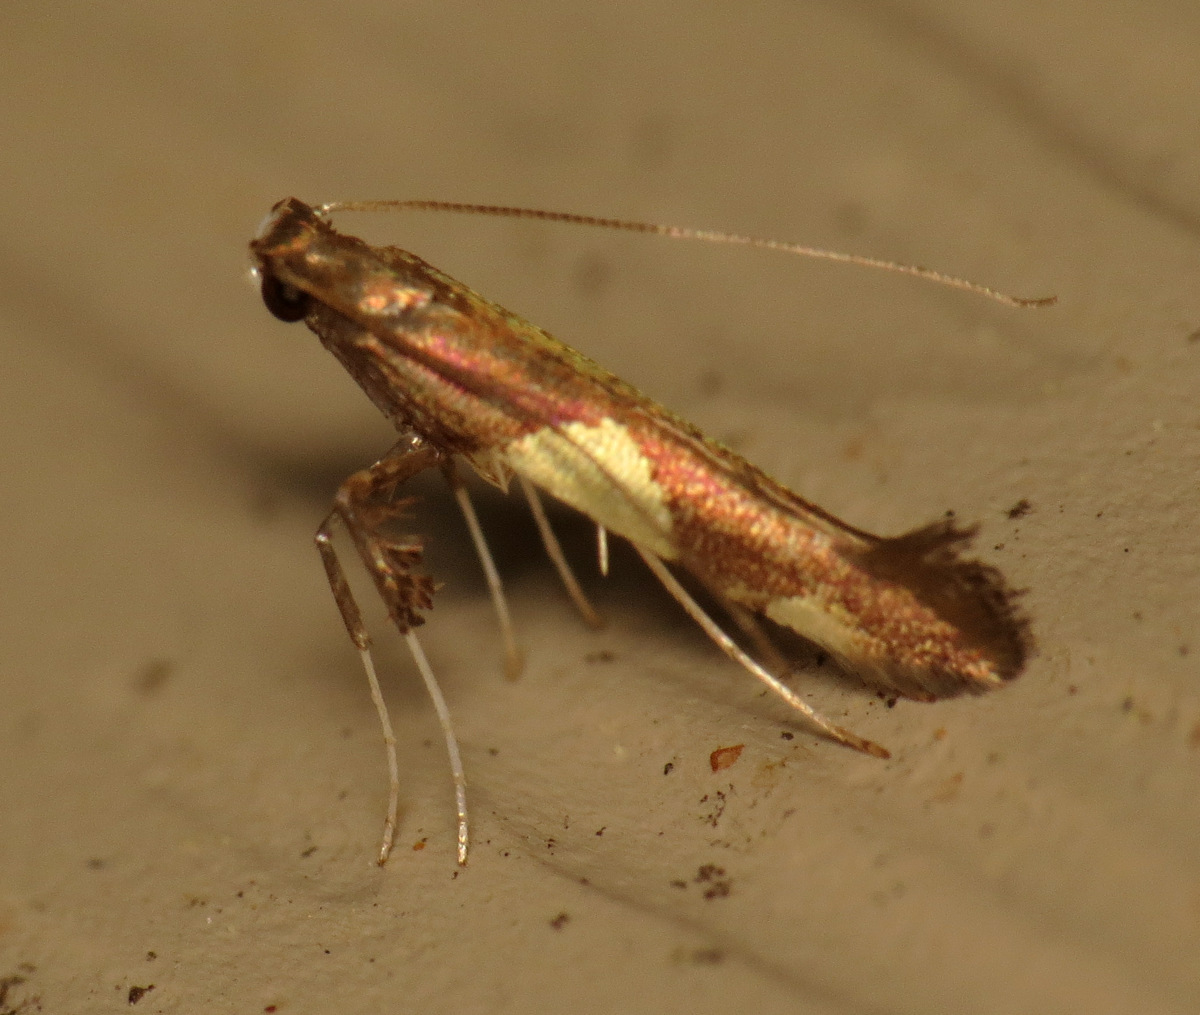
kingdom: Animalia
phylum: Arthropoda
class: Insecta
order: Lepidoptera
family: Gracillariidae
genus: Caloptilia
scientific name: Caloptilia bimaculatella
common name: Maple caloptilia moth
